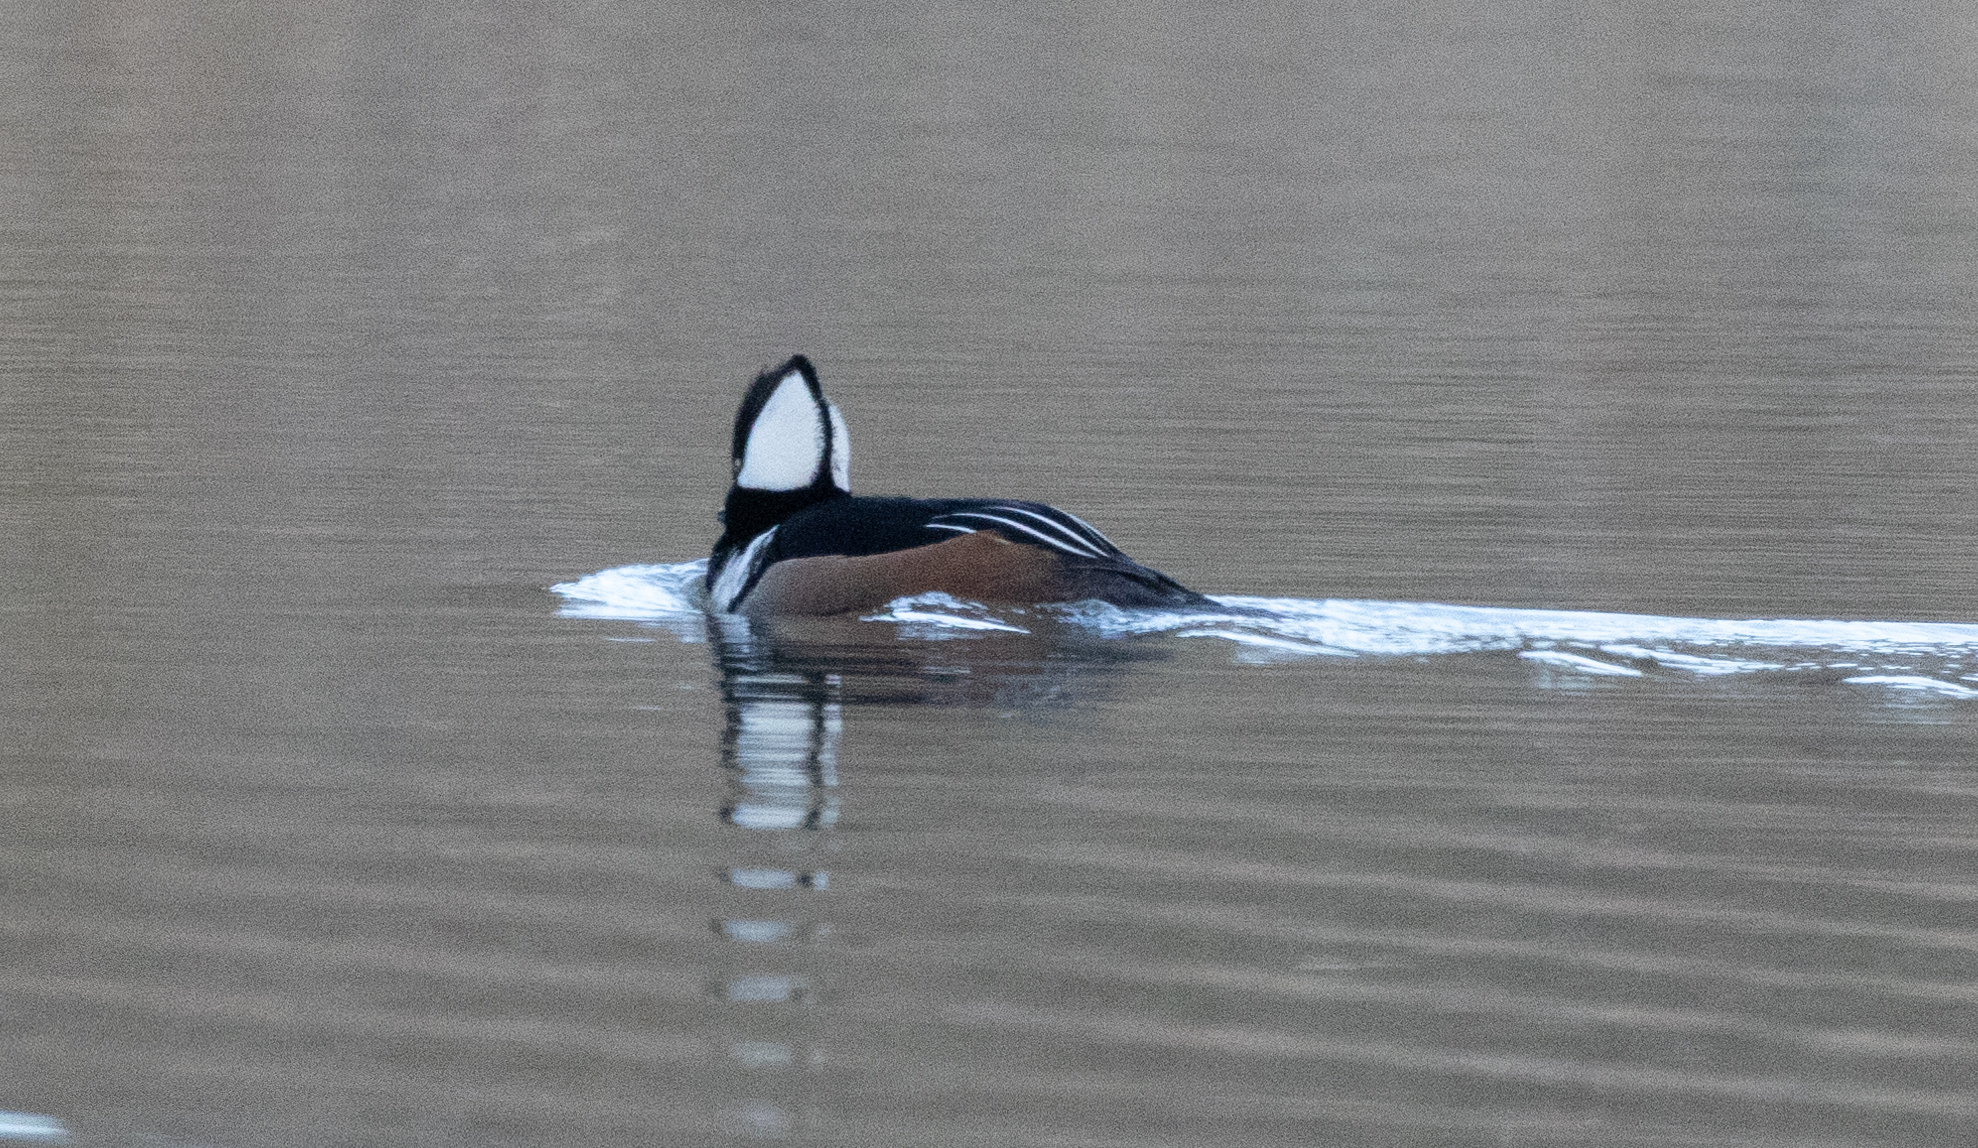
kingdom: Animalia
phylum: Chordata
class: Aves
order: Anseriformes
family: Anatidae
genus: Lophodytes
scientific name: Lophodytes cucullatus
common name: Hooded merganser
